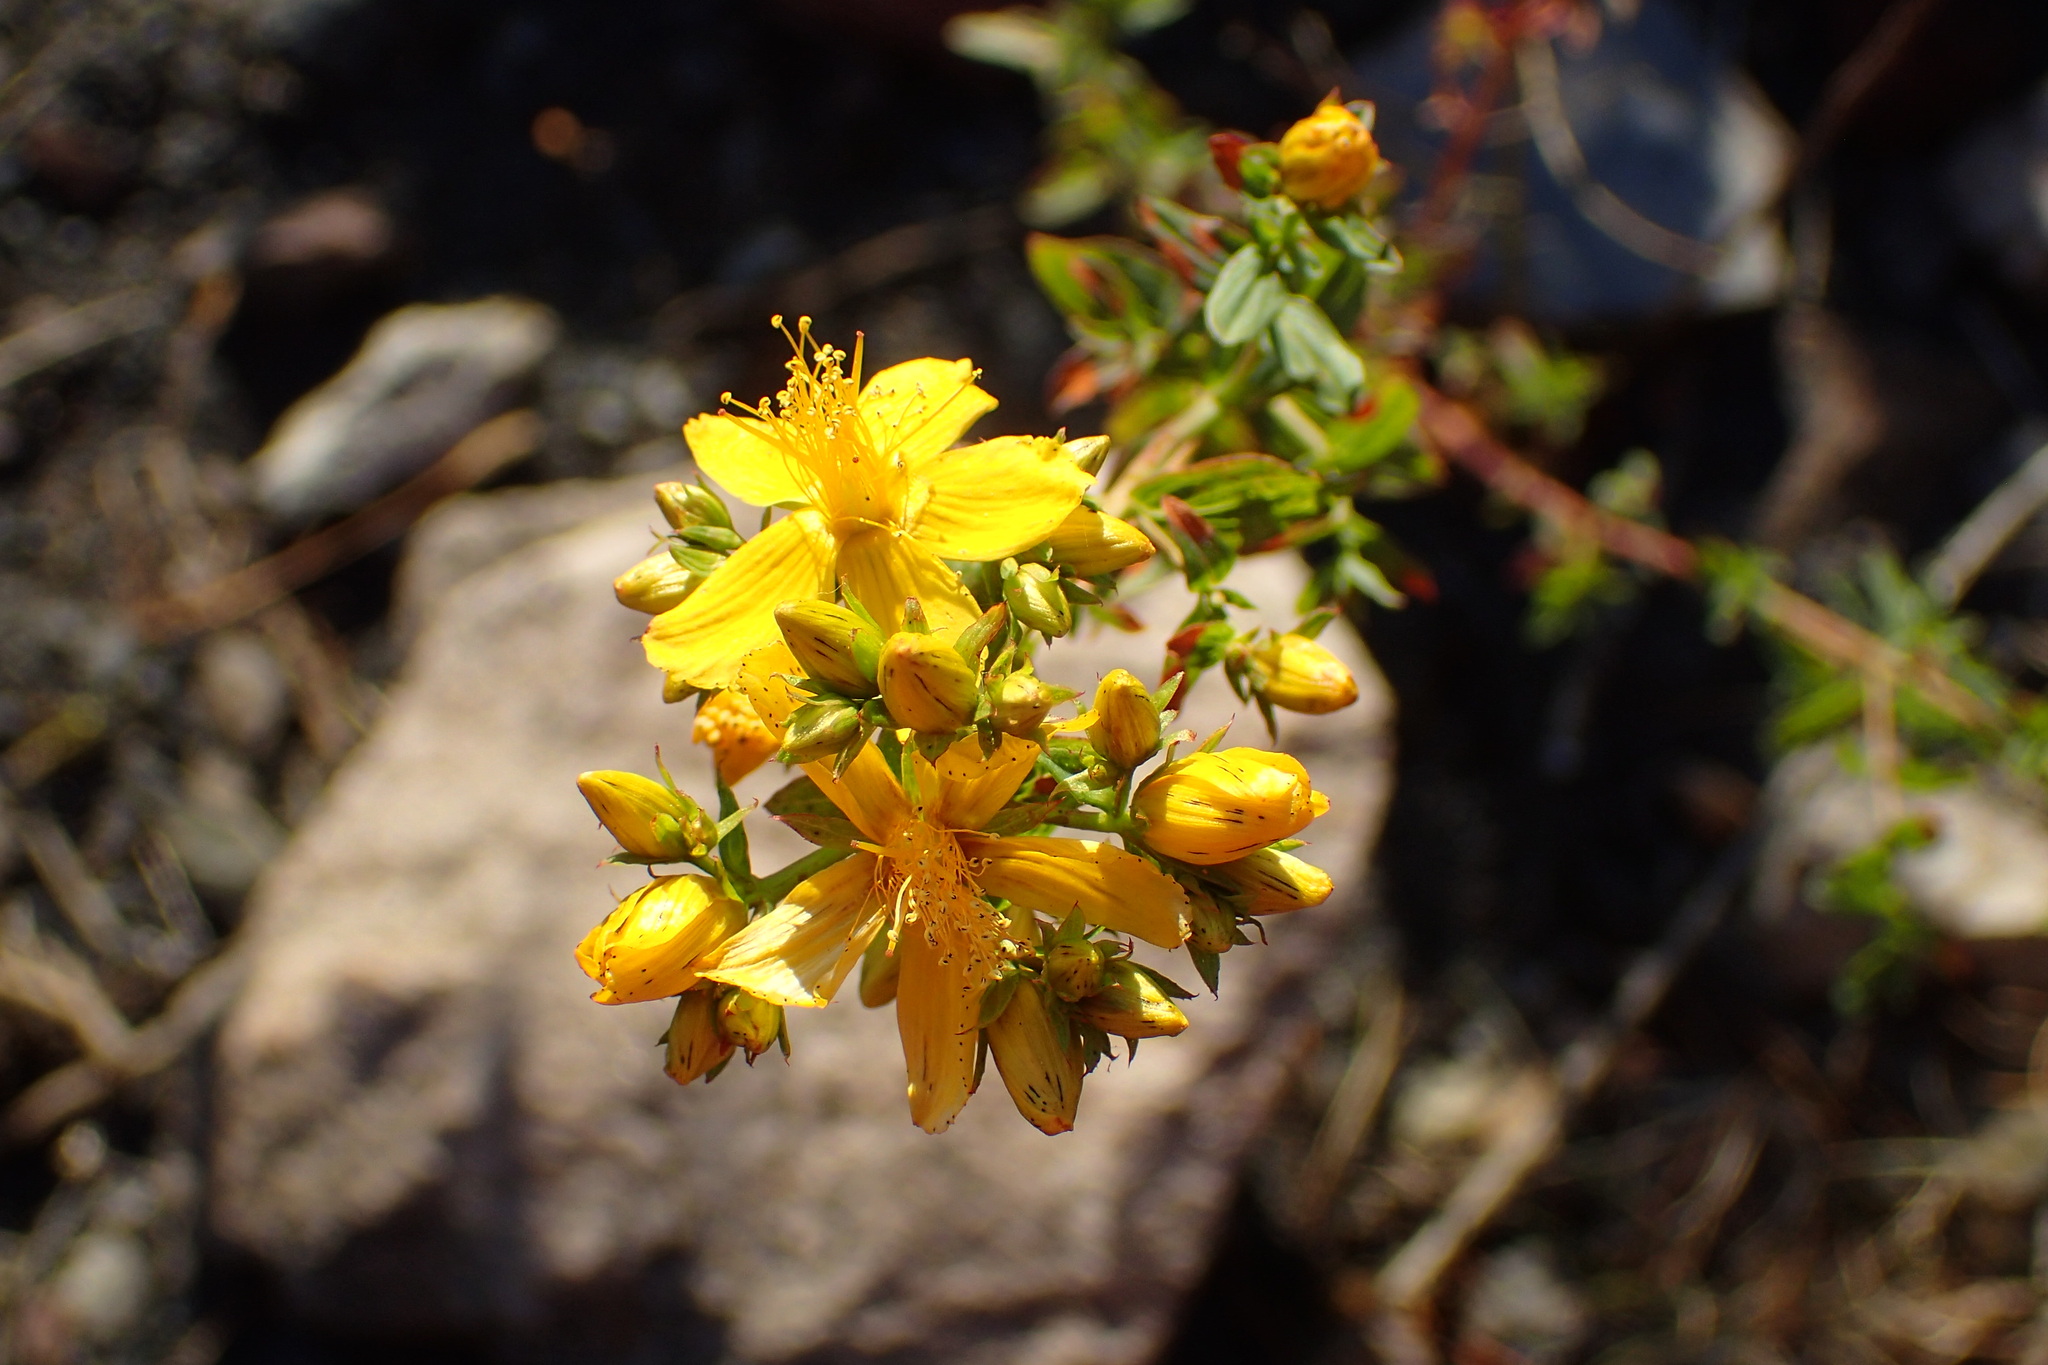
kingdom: Plantae
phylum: Tracheophyta
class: Magnoliopsida
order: Malpighiales
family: Hypericaceae
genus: Hypericum
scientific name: Hypericum perforatum
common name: Common st. johnswort
